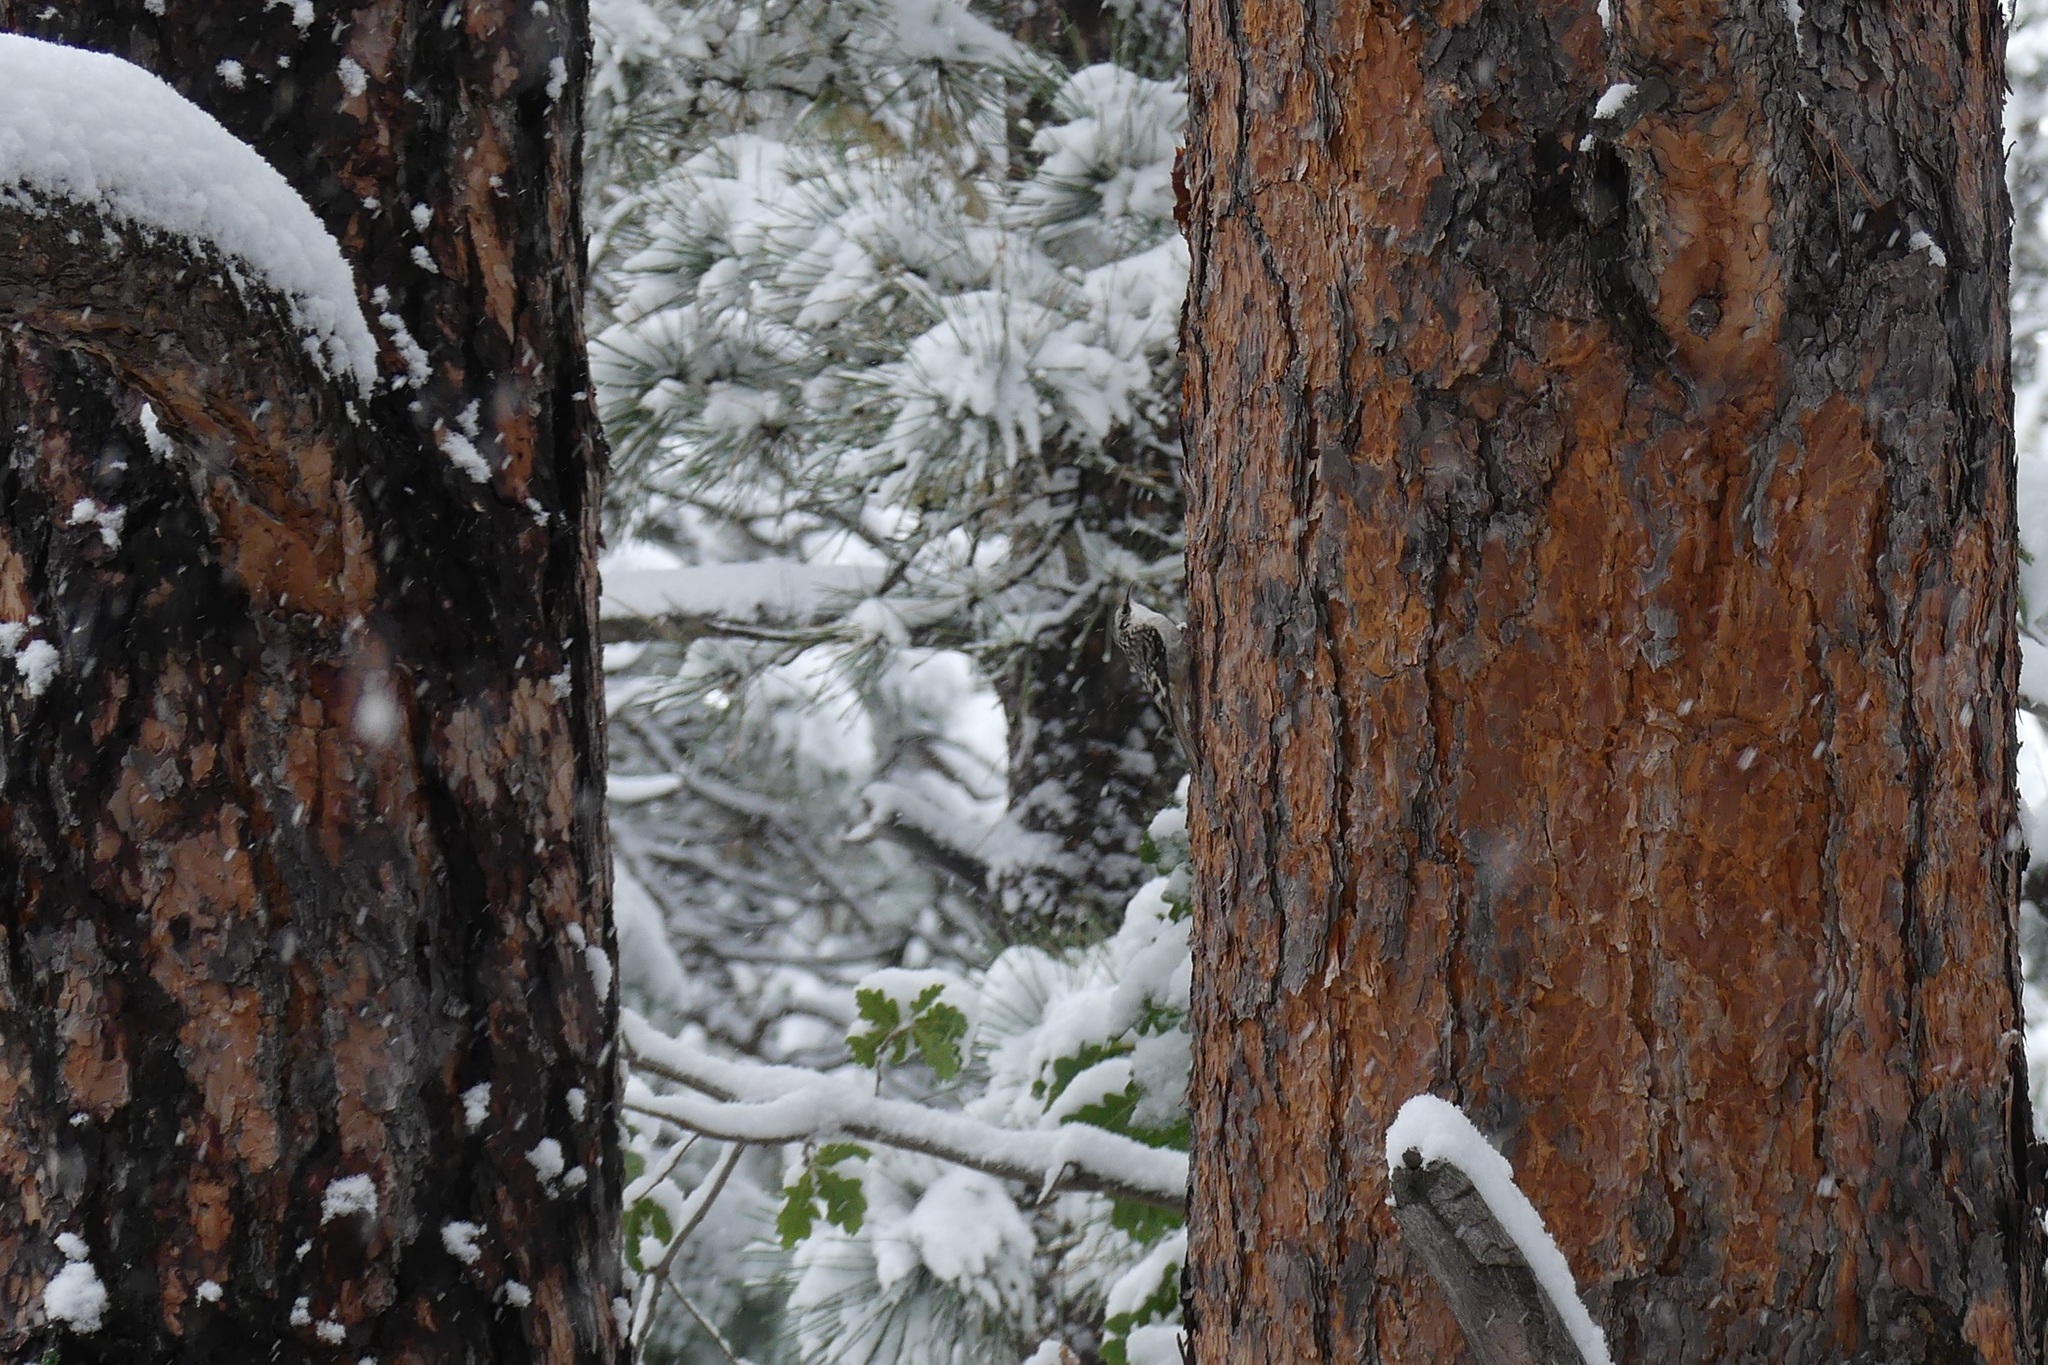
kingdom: Animalia
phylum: Chordata
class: Aves
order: Passeriformes
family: Certhiidae
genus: Certhia
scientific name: Certhia americana
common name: Brown creeper
